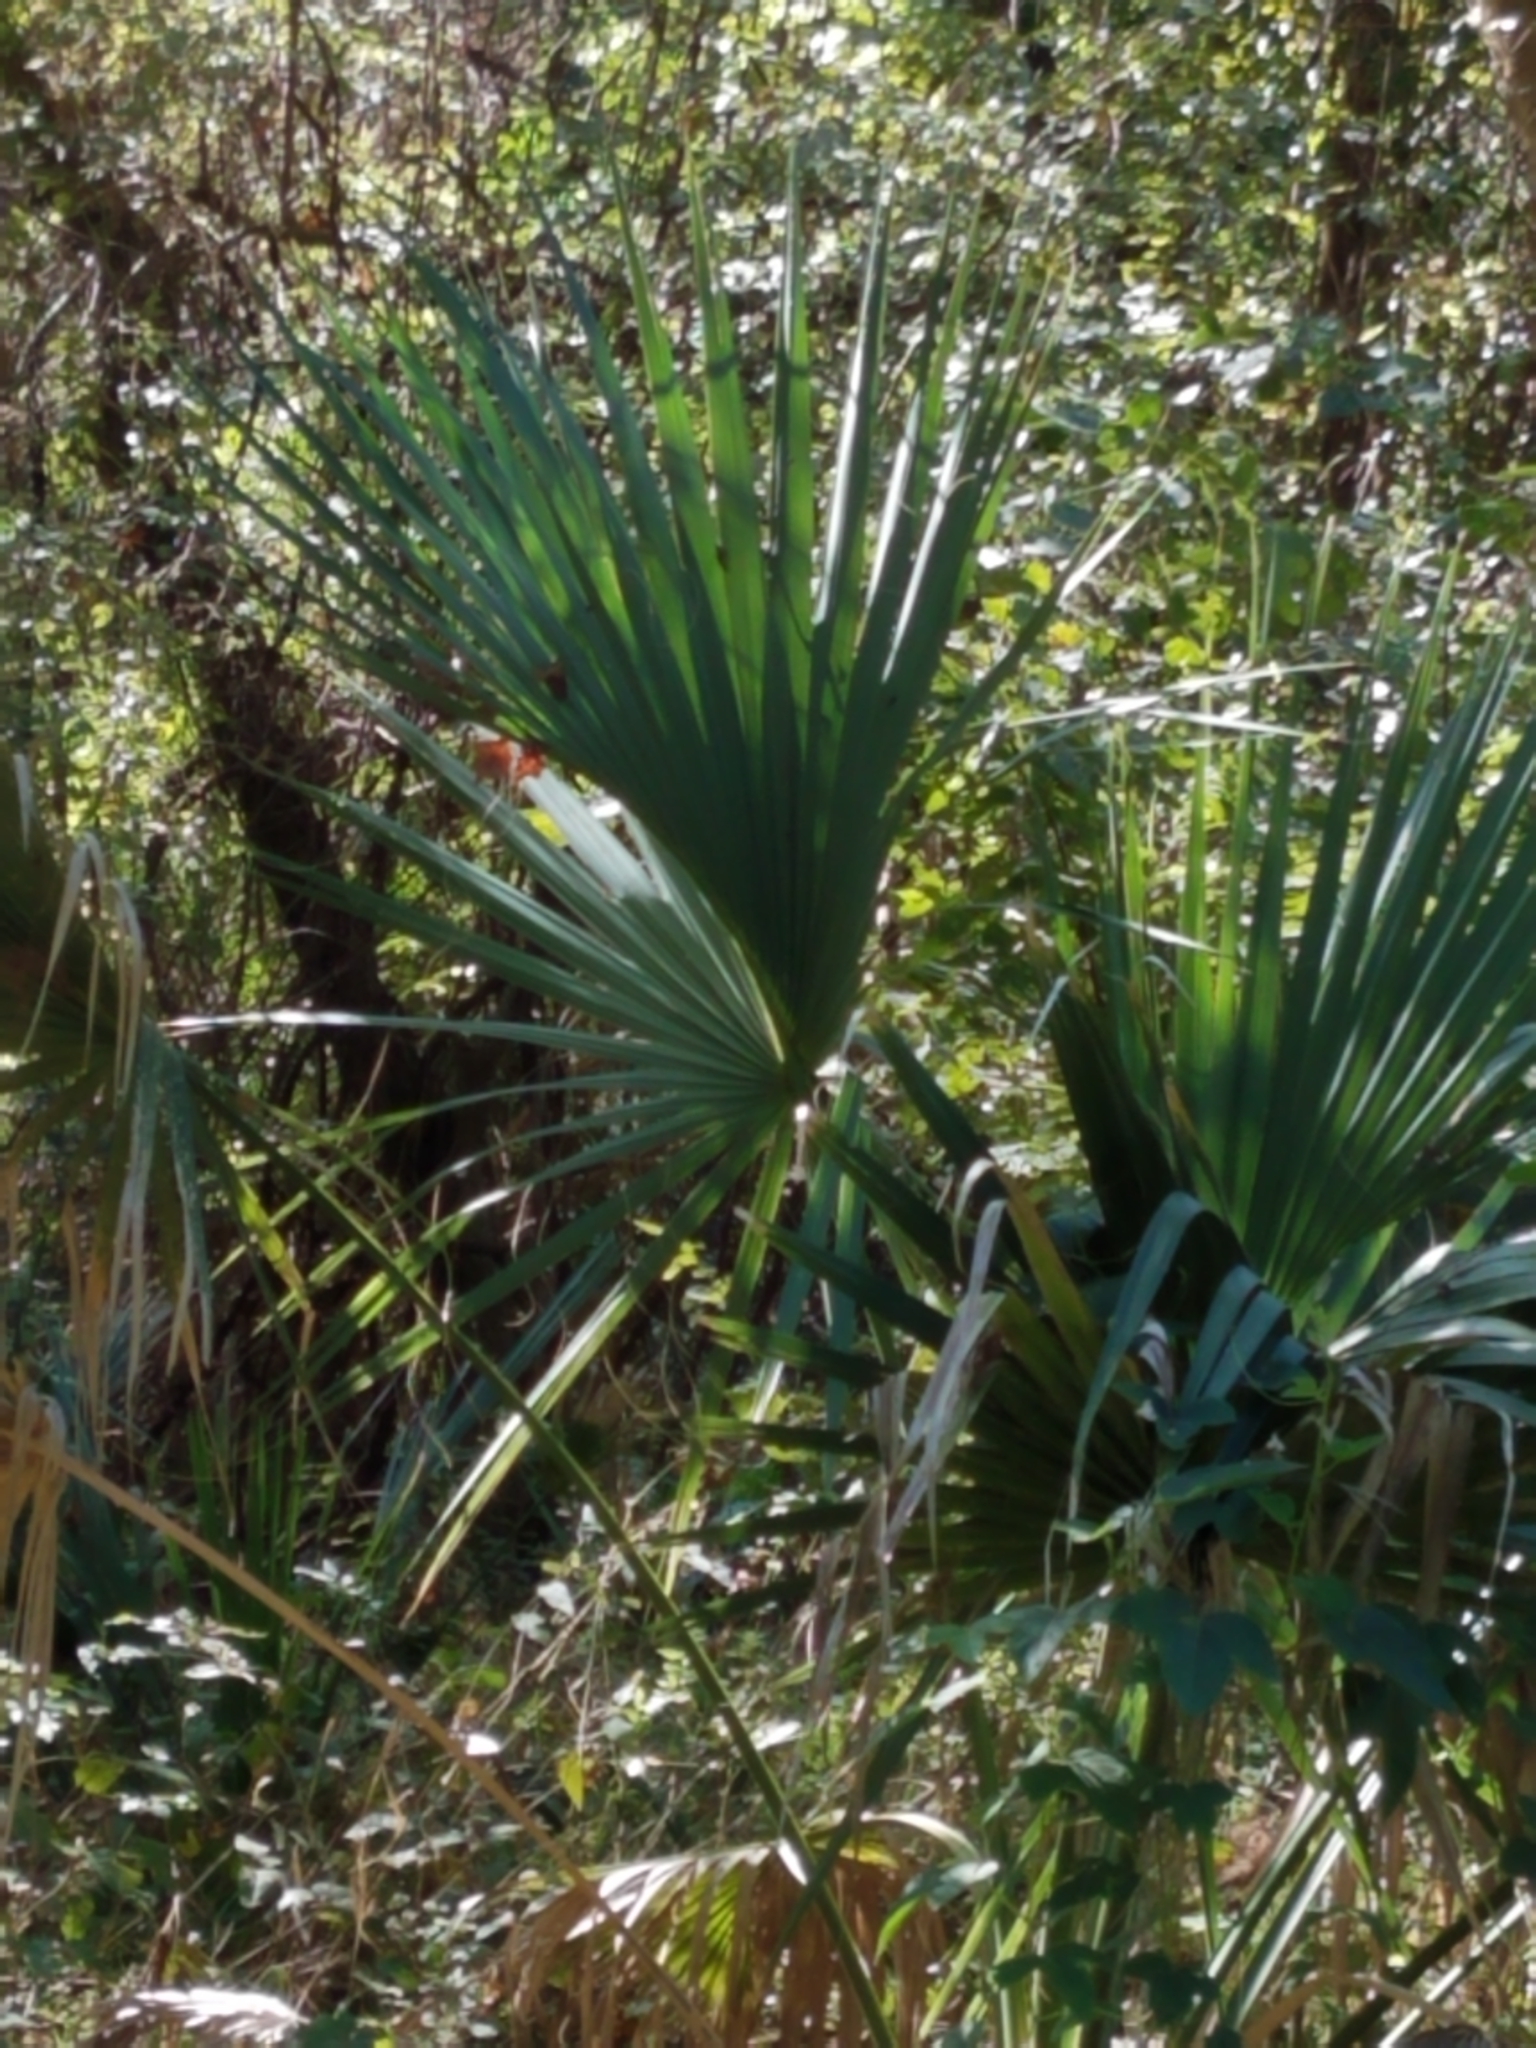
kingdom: Plantae
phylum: Tracheophyta
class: Liliopsida
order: Arecales
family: Arecaceae
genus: Sabal
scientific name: Sabal minor
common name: Dwarf palmetto
